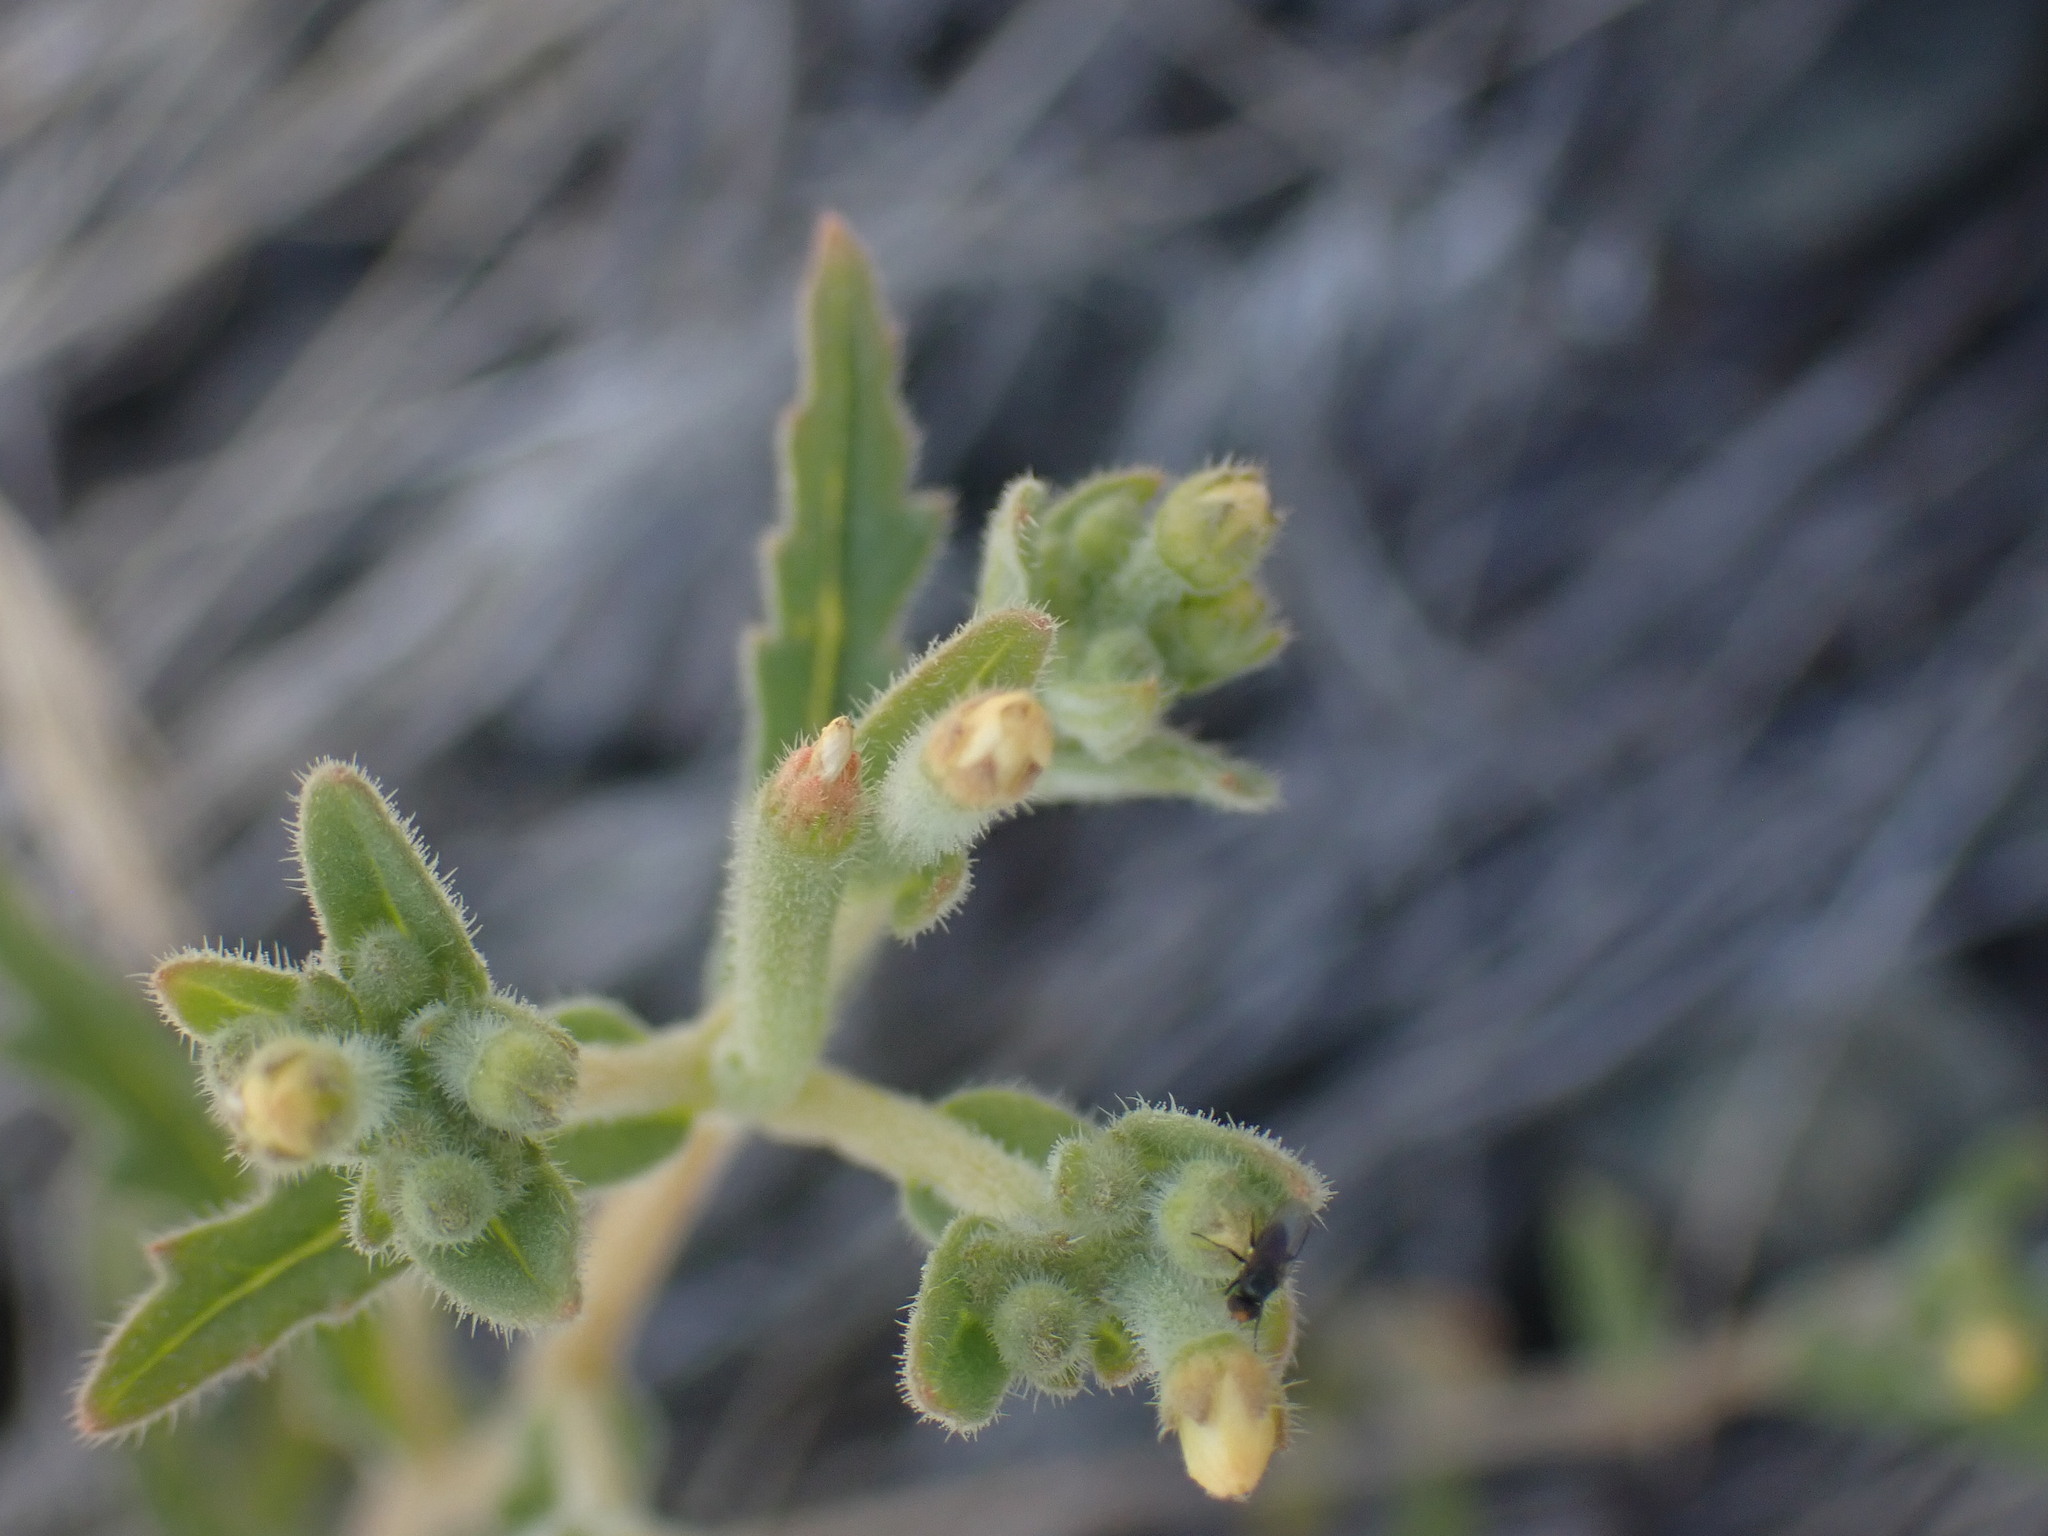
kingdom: Plantae
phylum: Tracheophyta
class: Magnoliopsida
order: Cornales
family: Loasaceae
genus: Mentzelia
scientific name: Mentzelia albicaulis
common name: White-stem blazingstar
